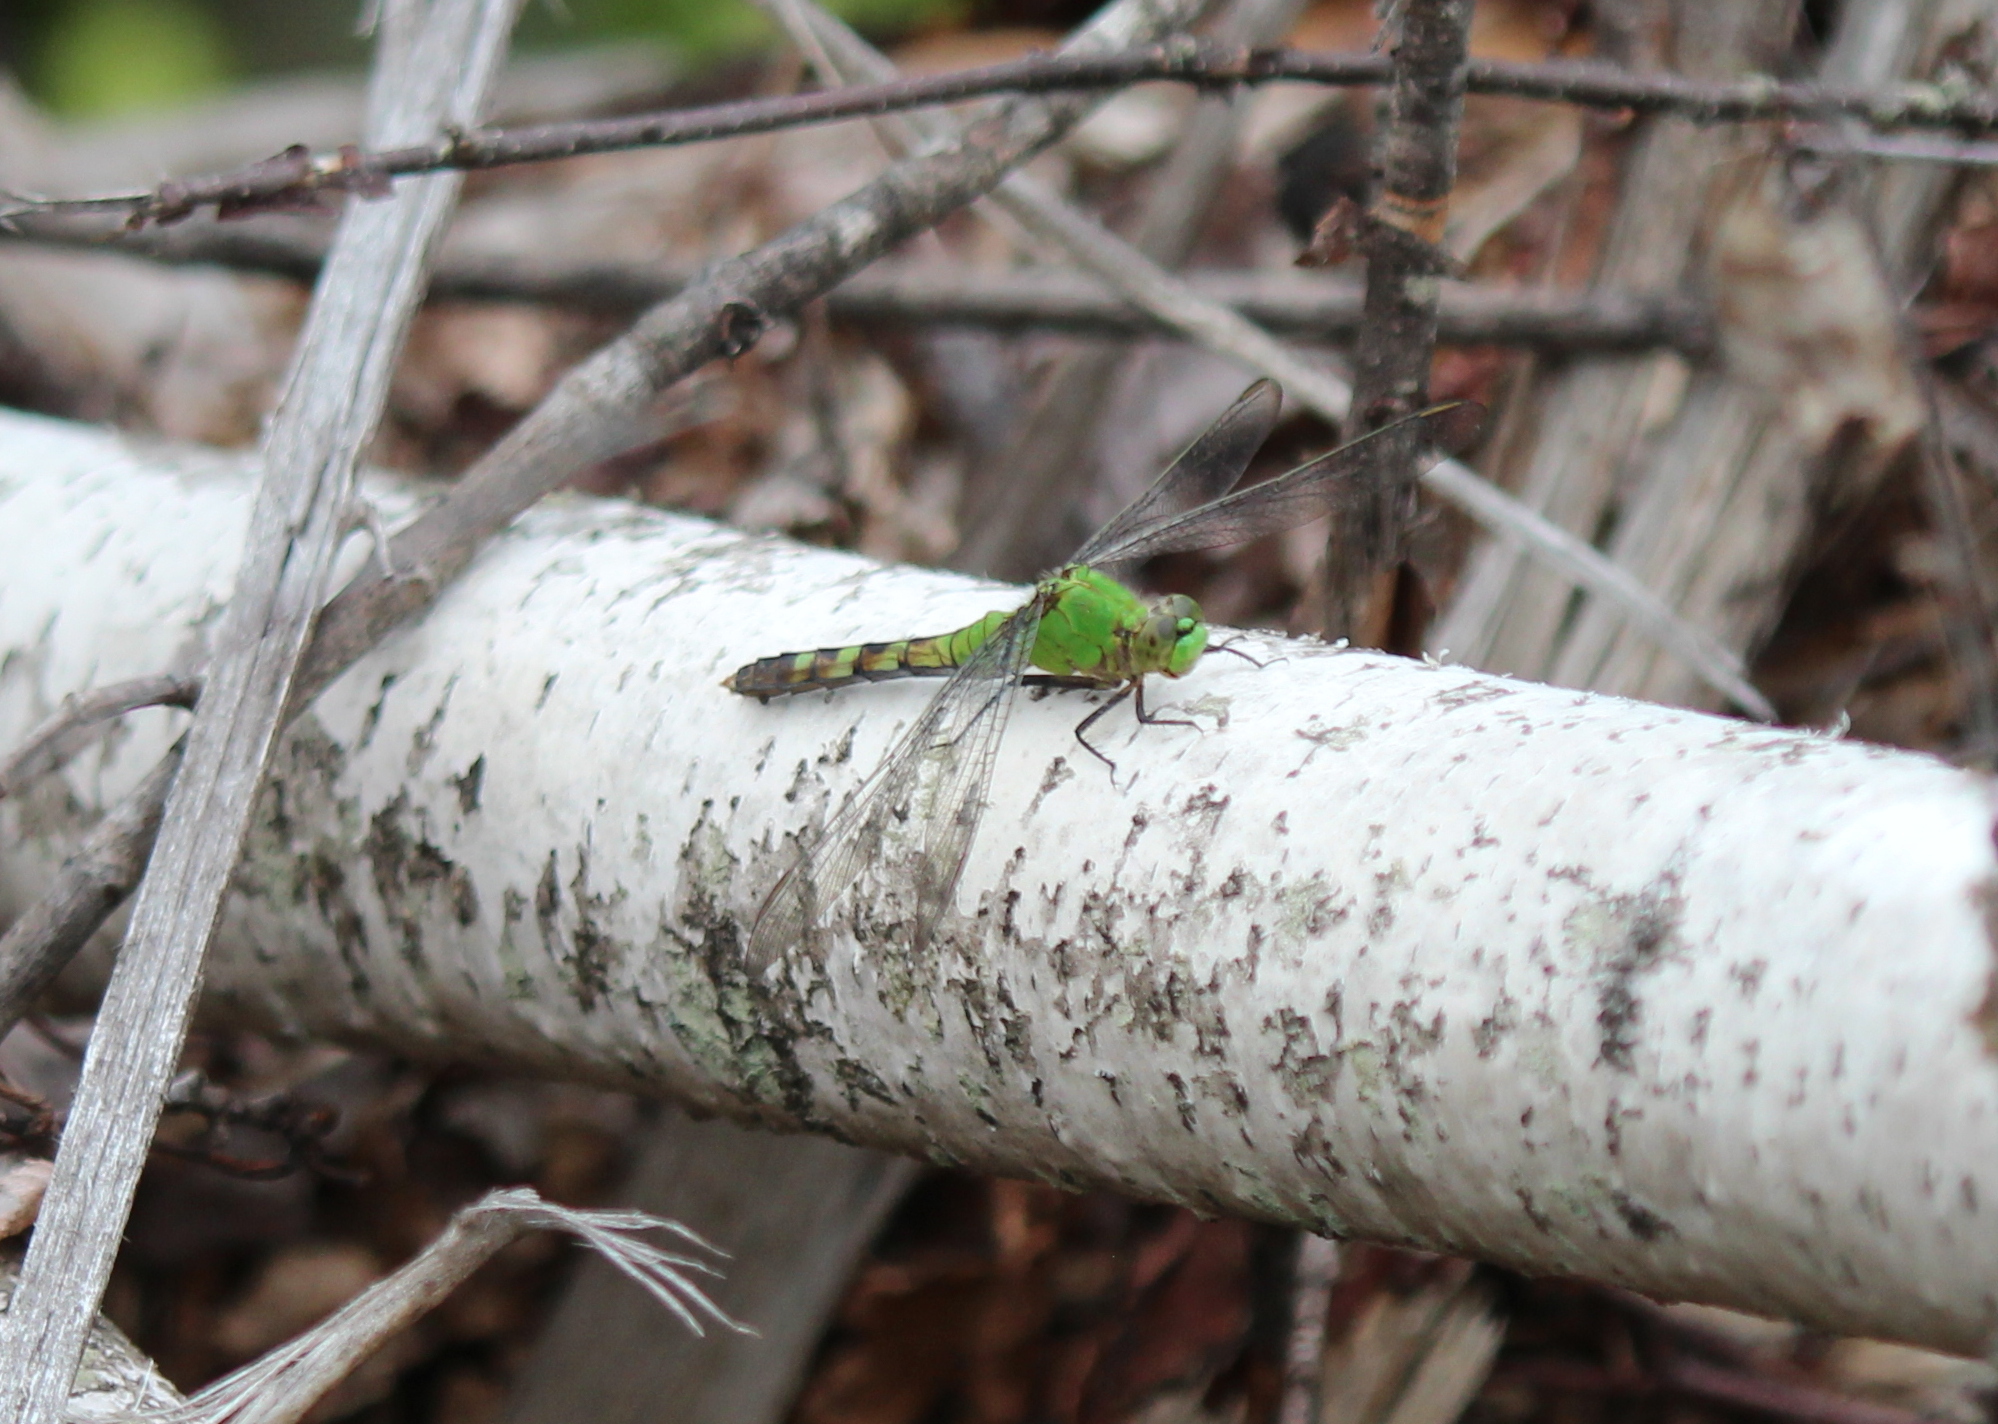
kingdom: Animalia
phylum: Arthropoda
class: Insecta
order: Odonata
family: Libellulidae
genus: Erythemis
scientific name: Erythemis simplicicollis
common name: Eastern pondhawk
